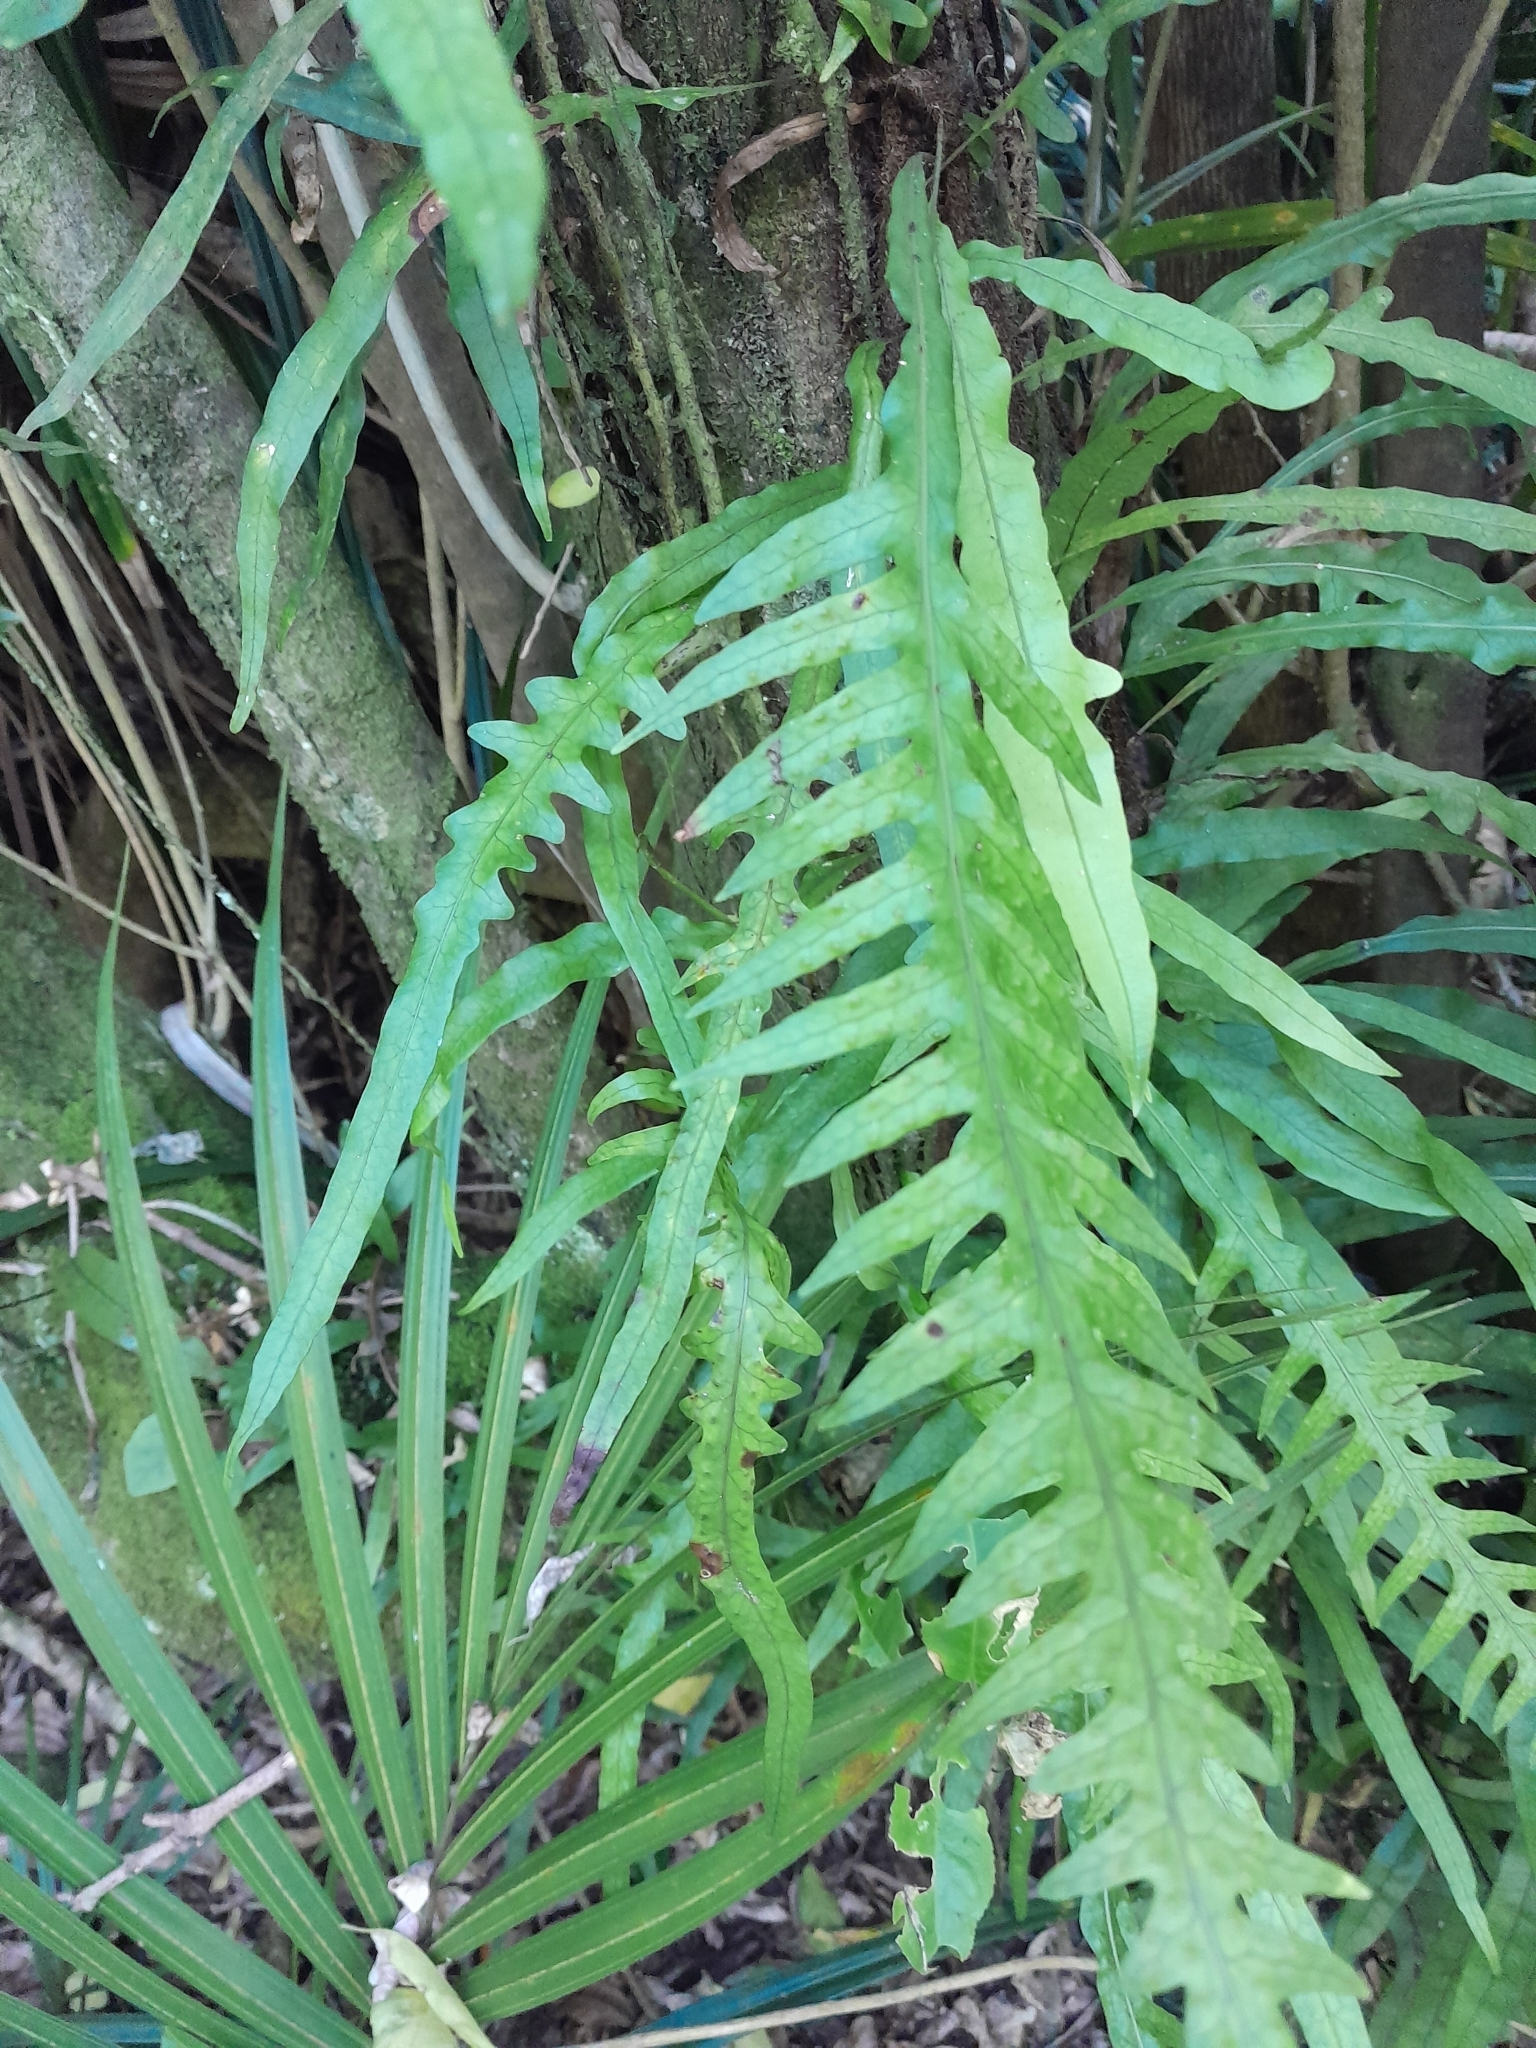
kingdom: Plantae
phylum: Tracheophyta
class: Polypodiopsida
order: Polypodiales
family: Polypodiaceae
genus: Lecanopteris
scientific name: Lecanopteris scandens
